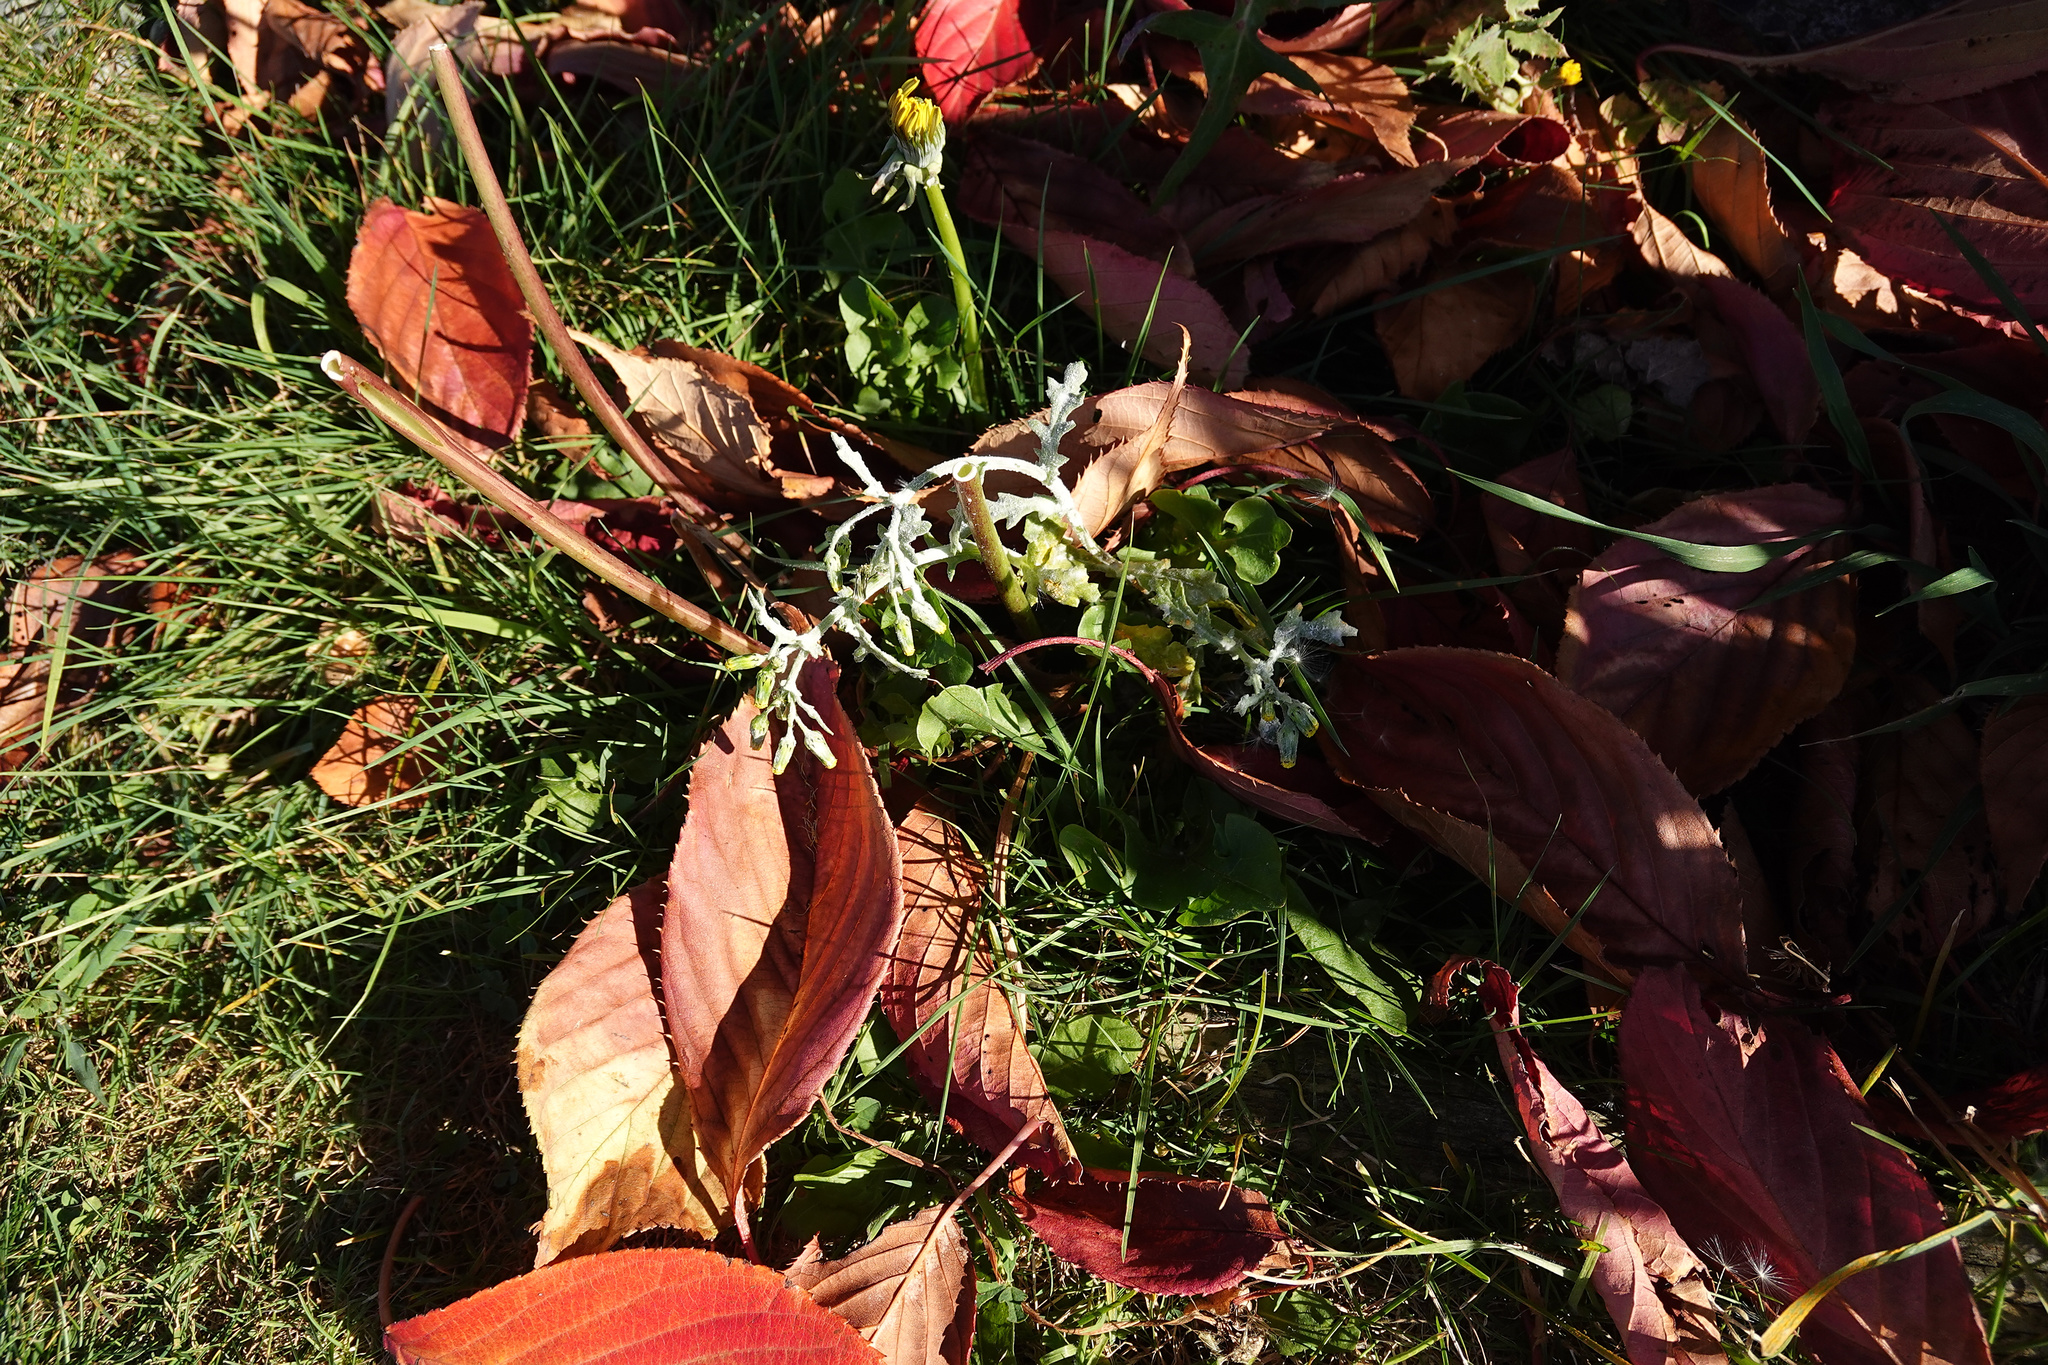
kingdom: Plantae
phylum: Tracheophyta
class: Magnoliopsida
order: Asterales
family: Asteraceae
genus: Senecio
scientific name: Senecio vulgaris
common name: Old-man-in-the-spring
